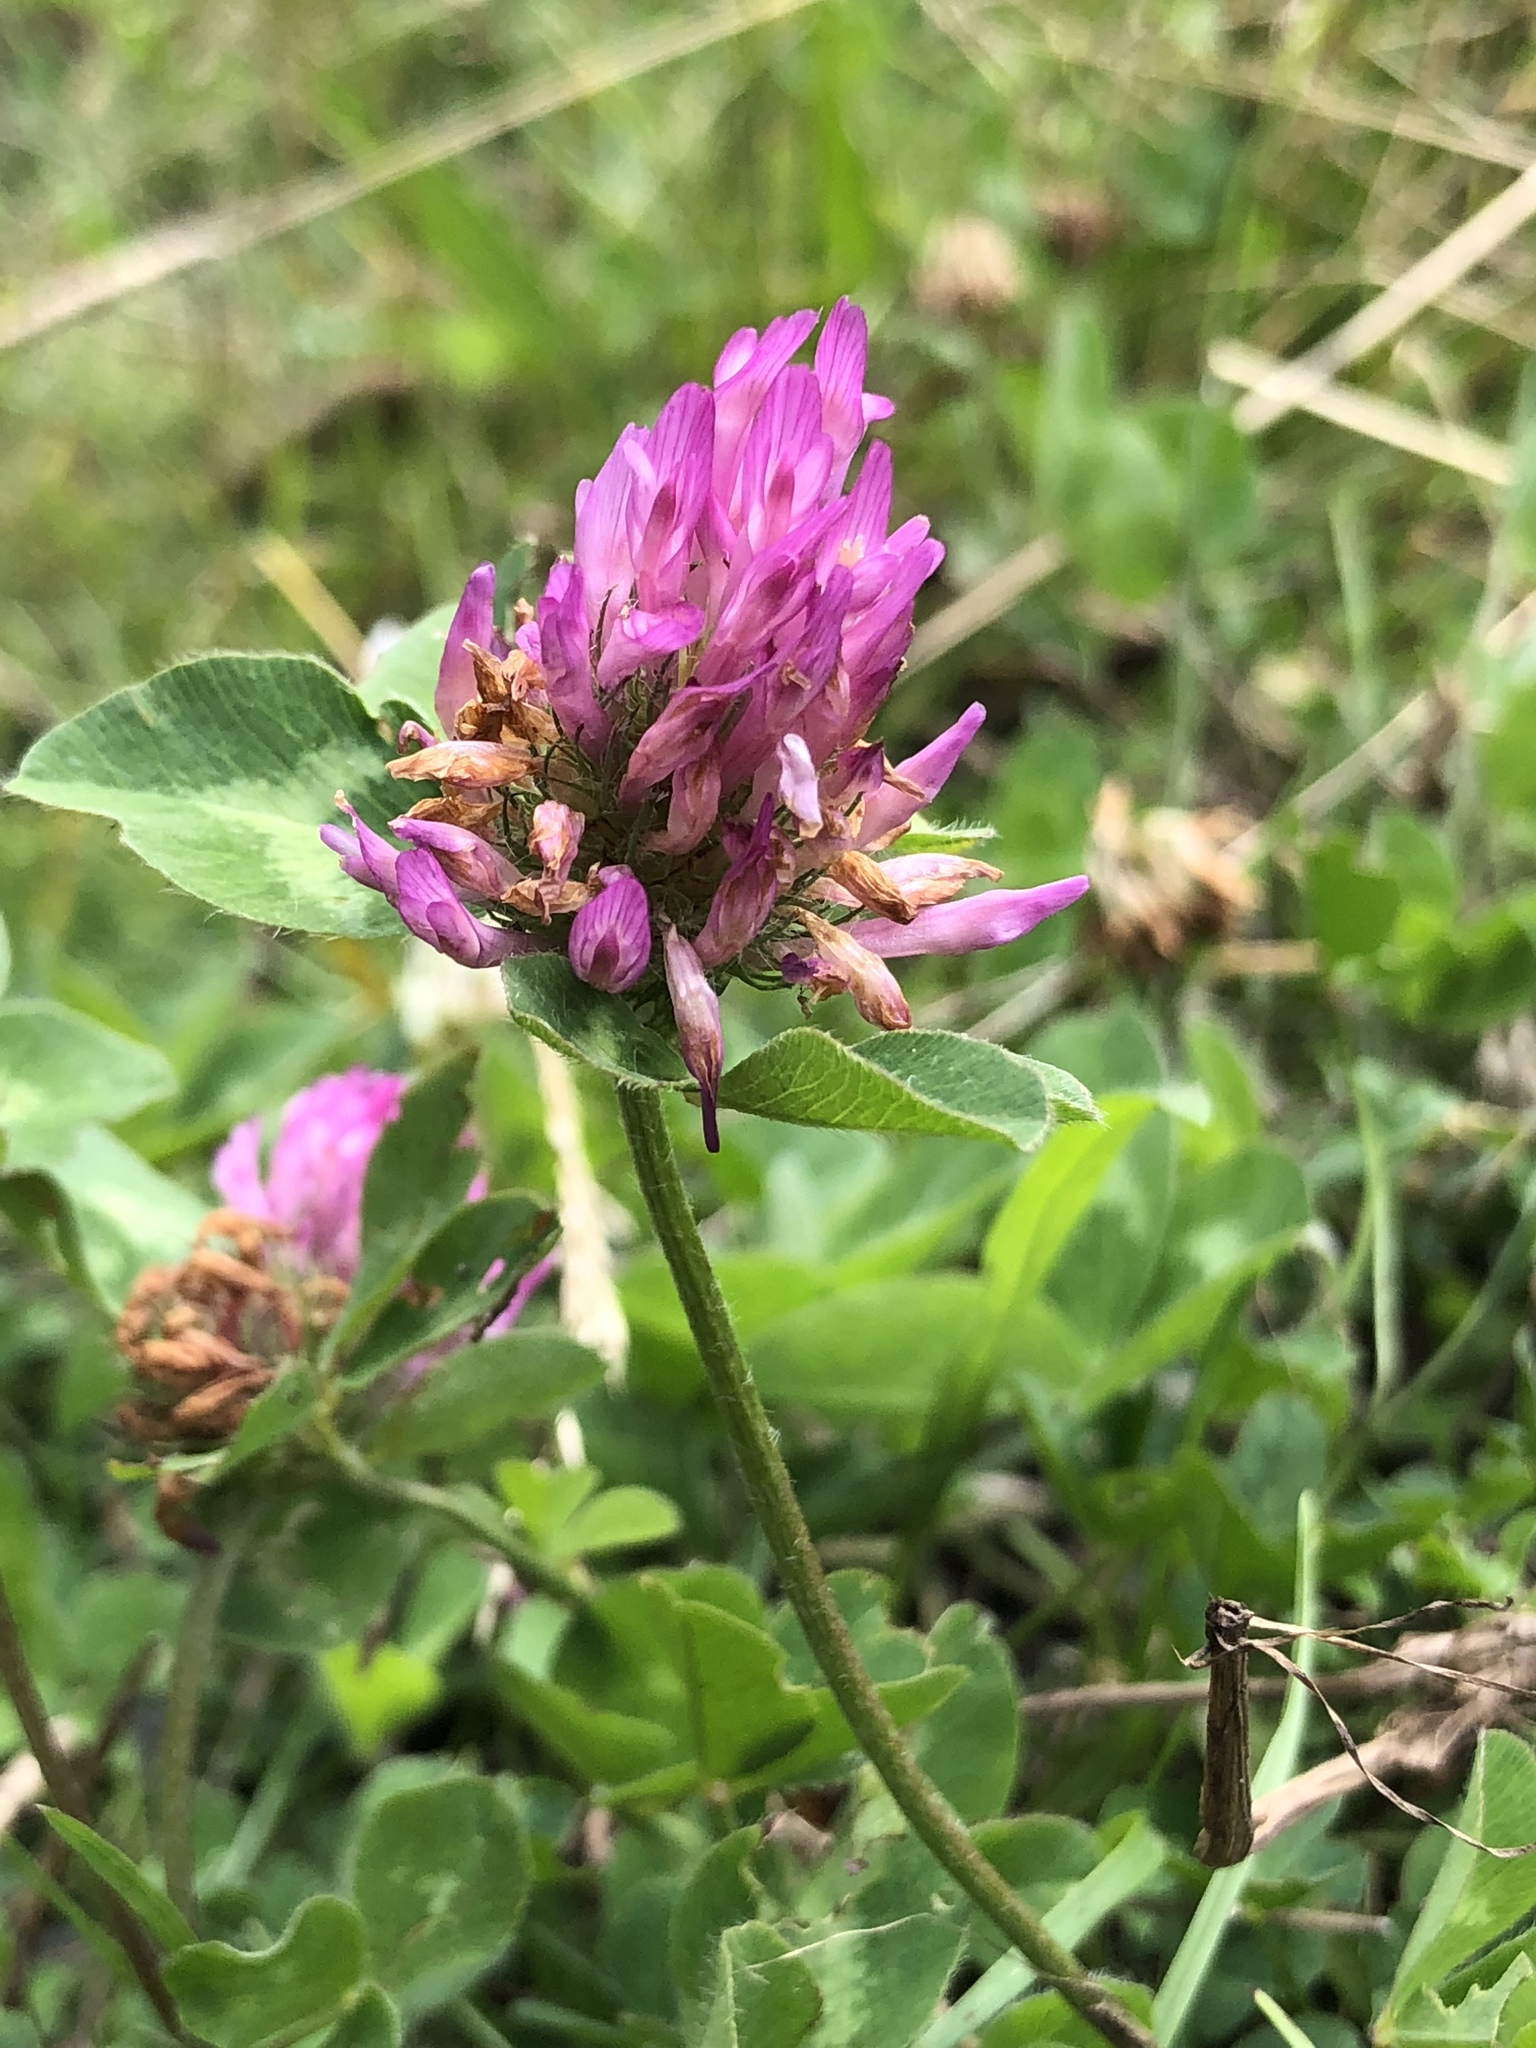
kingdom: Plantae
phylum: Tracheophyta
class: Magnoliopsida
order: Fabales
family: Fabaceae
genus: Trifolium
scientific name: Trifolium pratense
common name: Red clover
